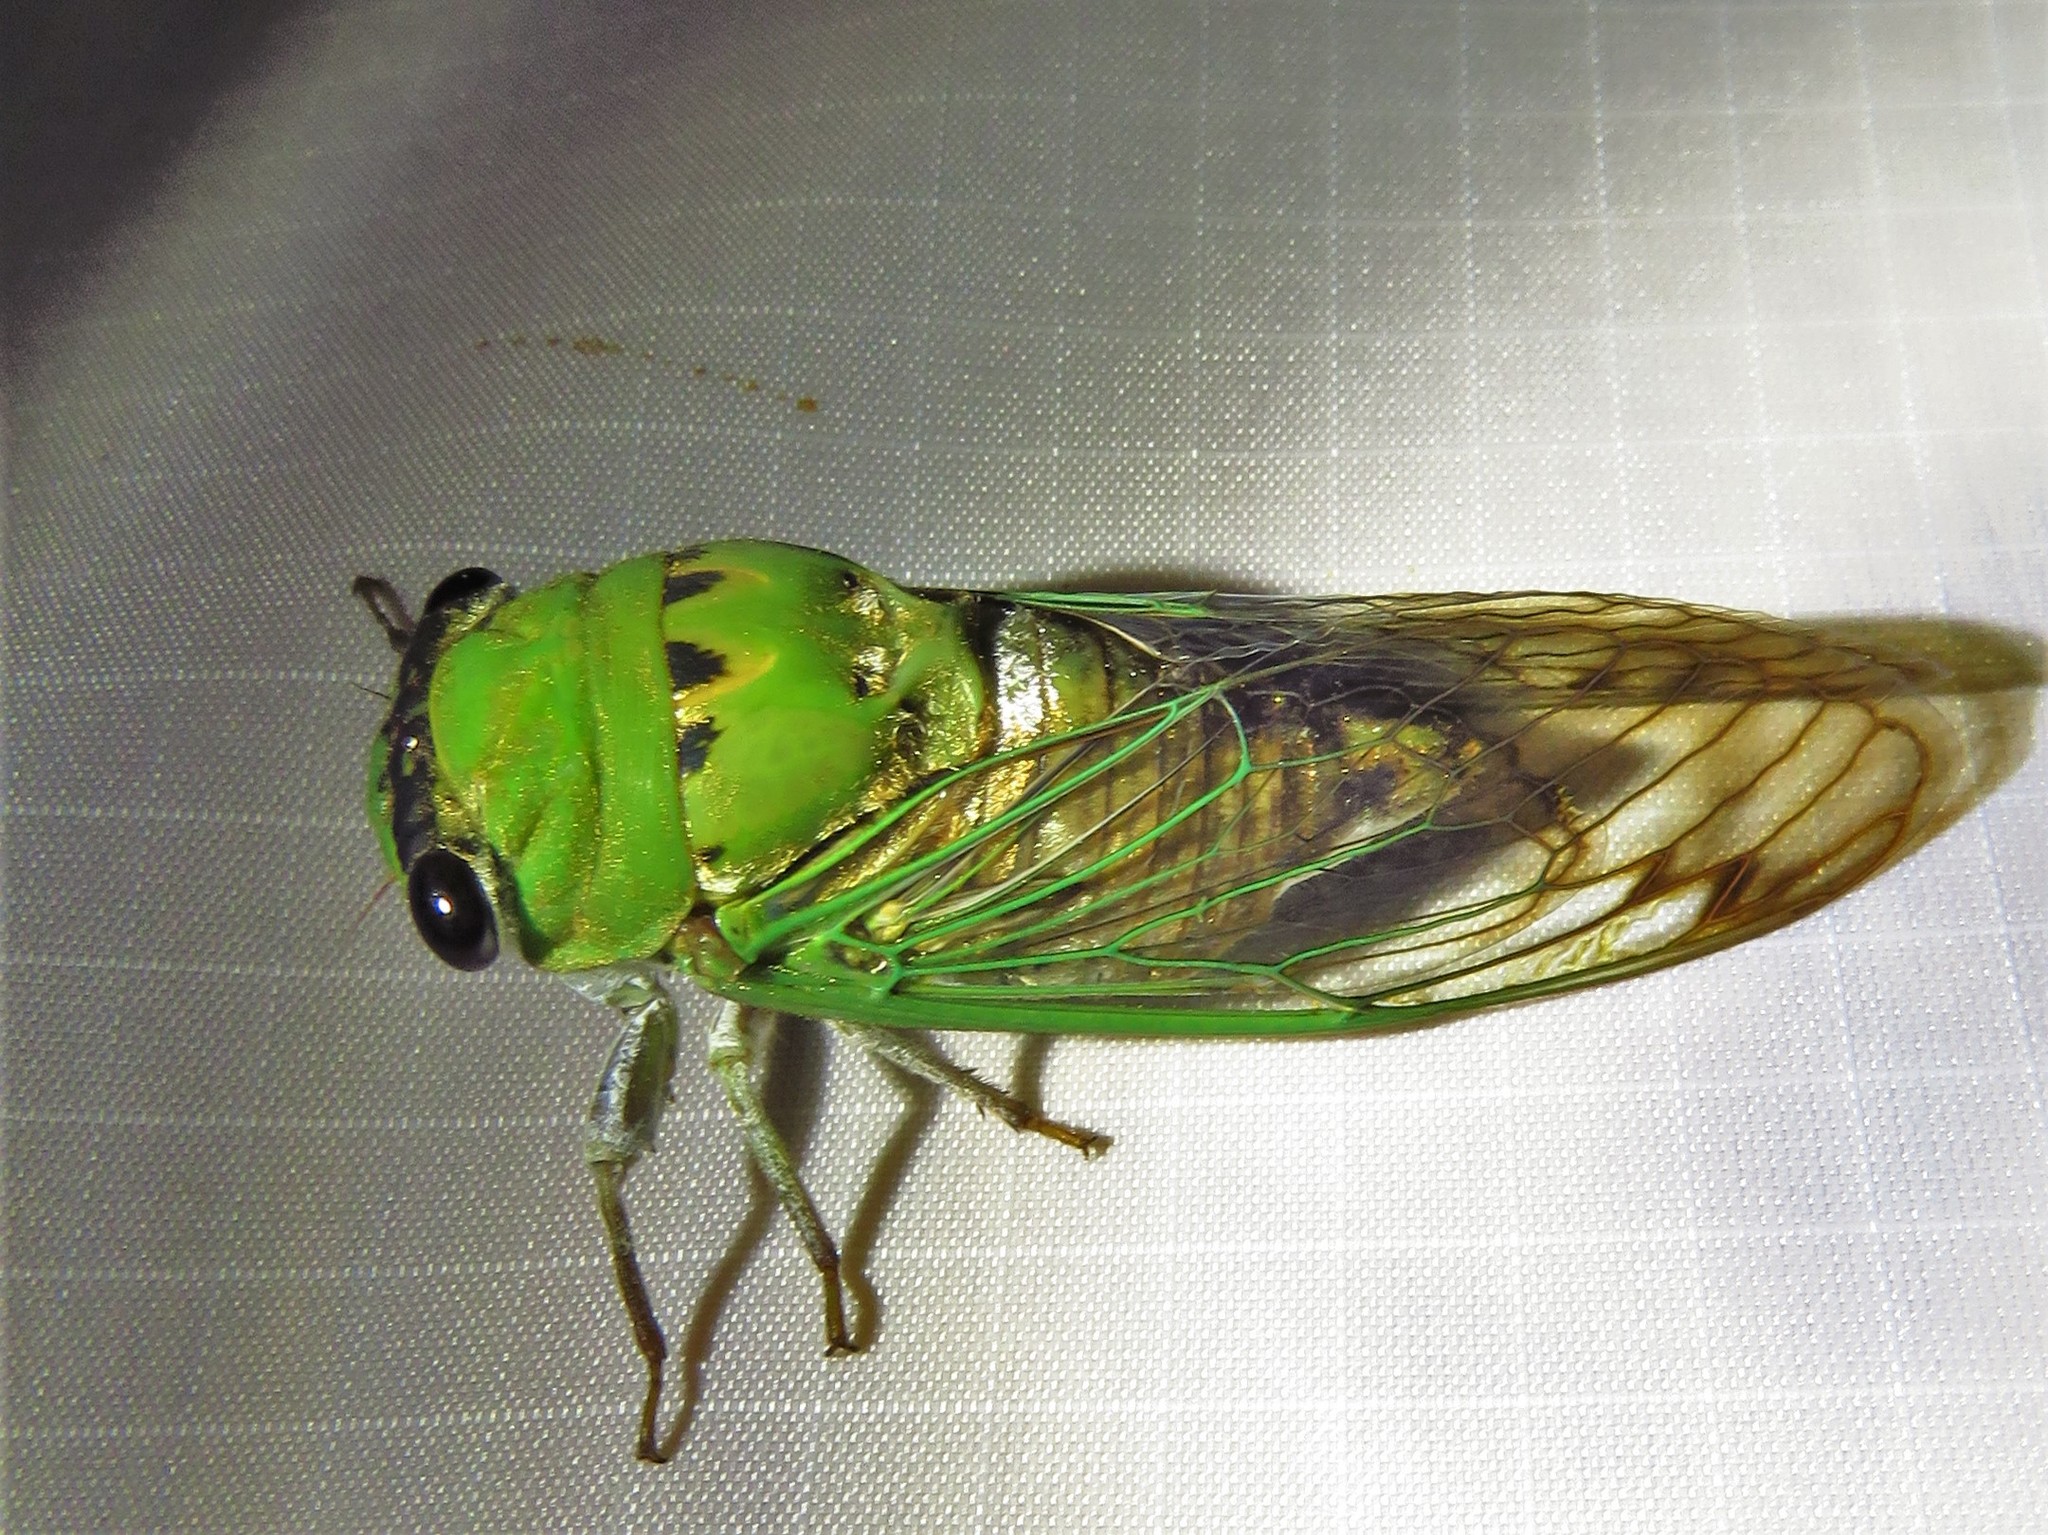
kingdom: Animalia
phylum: Arthropoda
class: Insecta
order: Hemiptera
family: Cicadidae
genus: Neotibicen
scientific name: Neotibicen superbus
